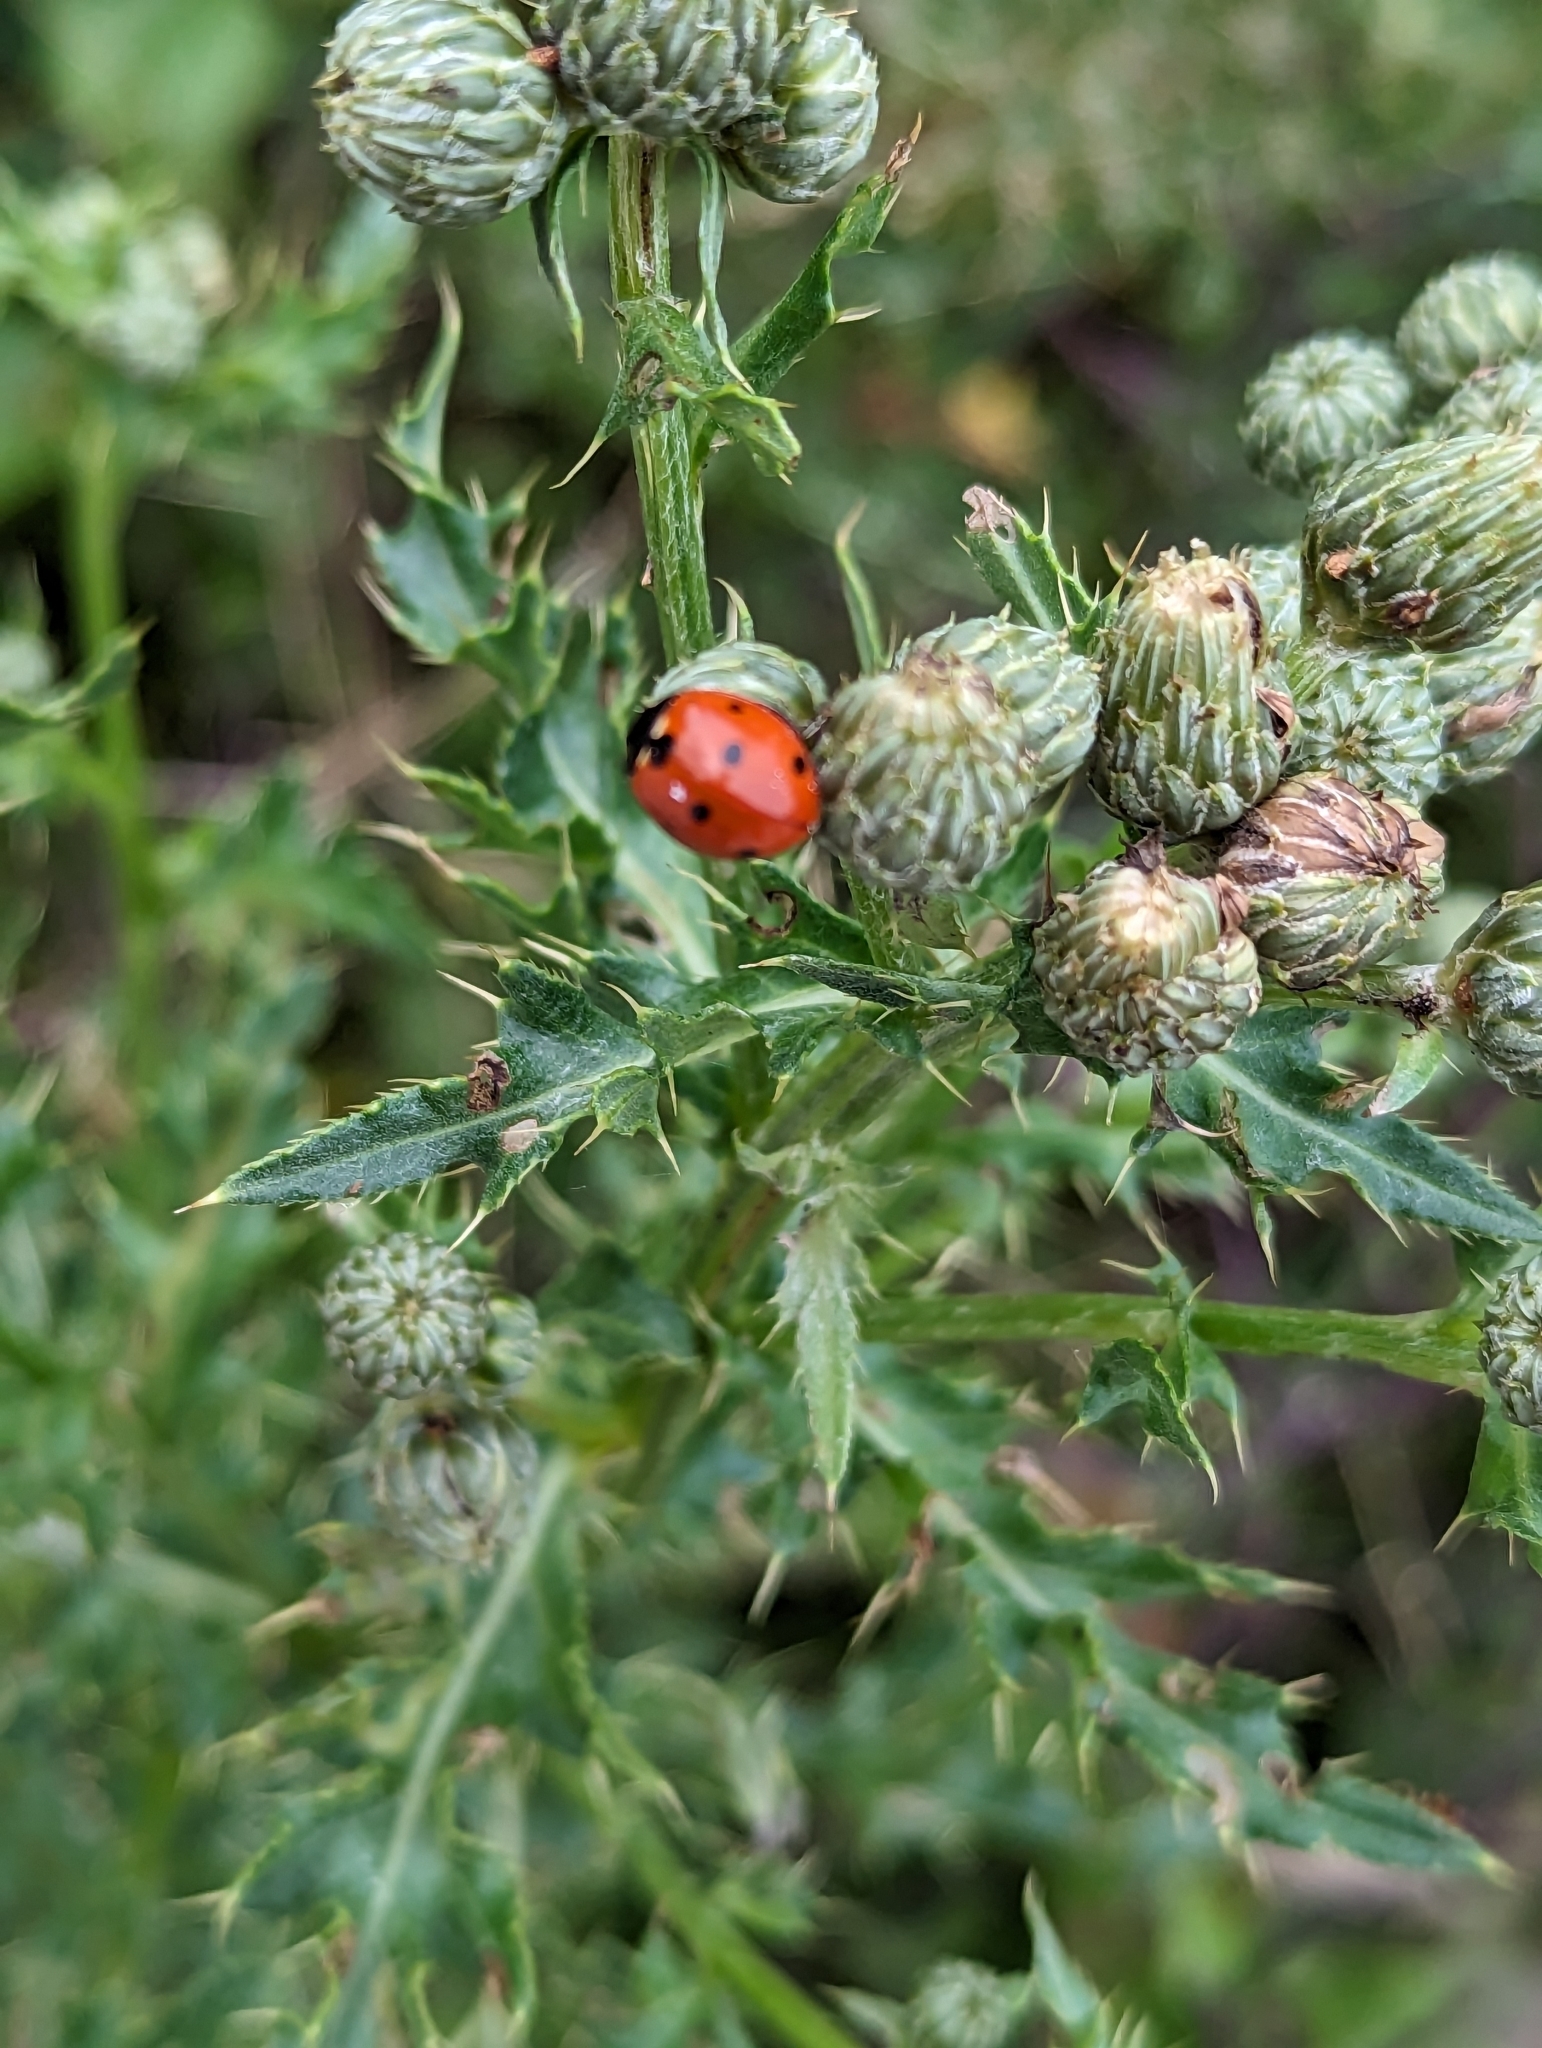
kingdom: Animalia
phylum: Arthropoda
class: Insecta
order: Coleoptera
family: Coccinellidae
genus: Coccinella
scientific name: Coccinella septempunctata
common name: Sevenspotted lady beetle
